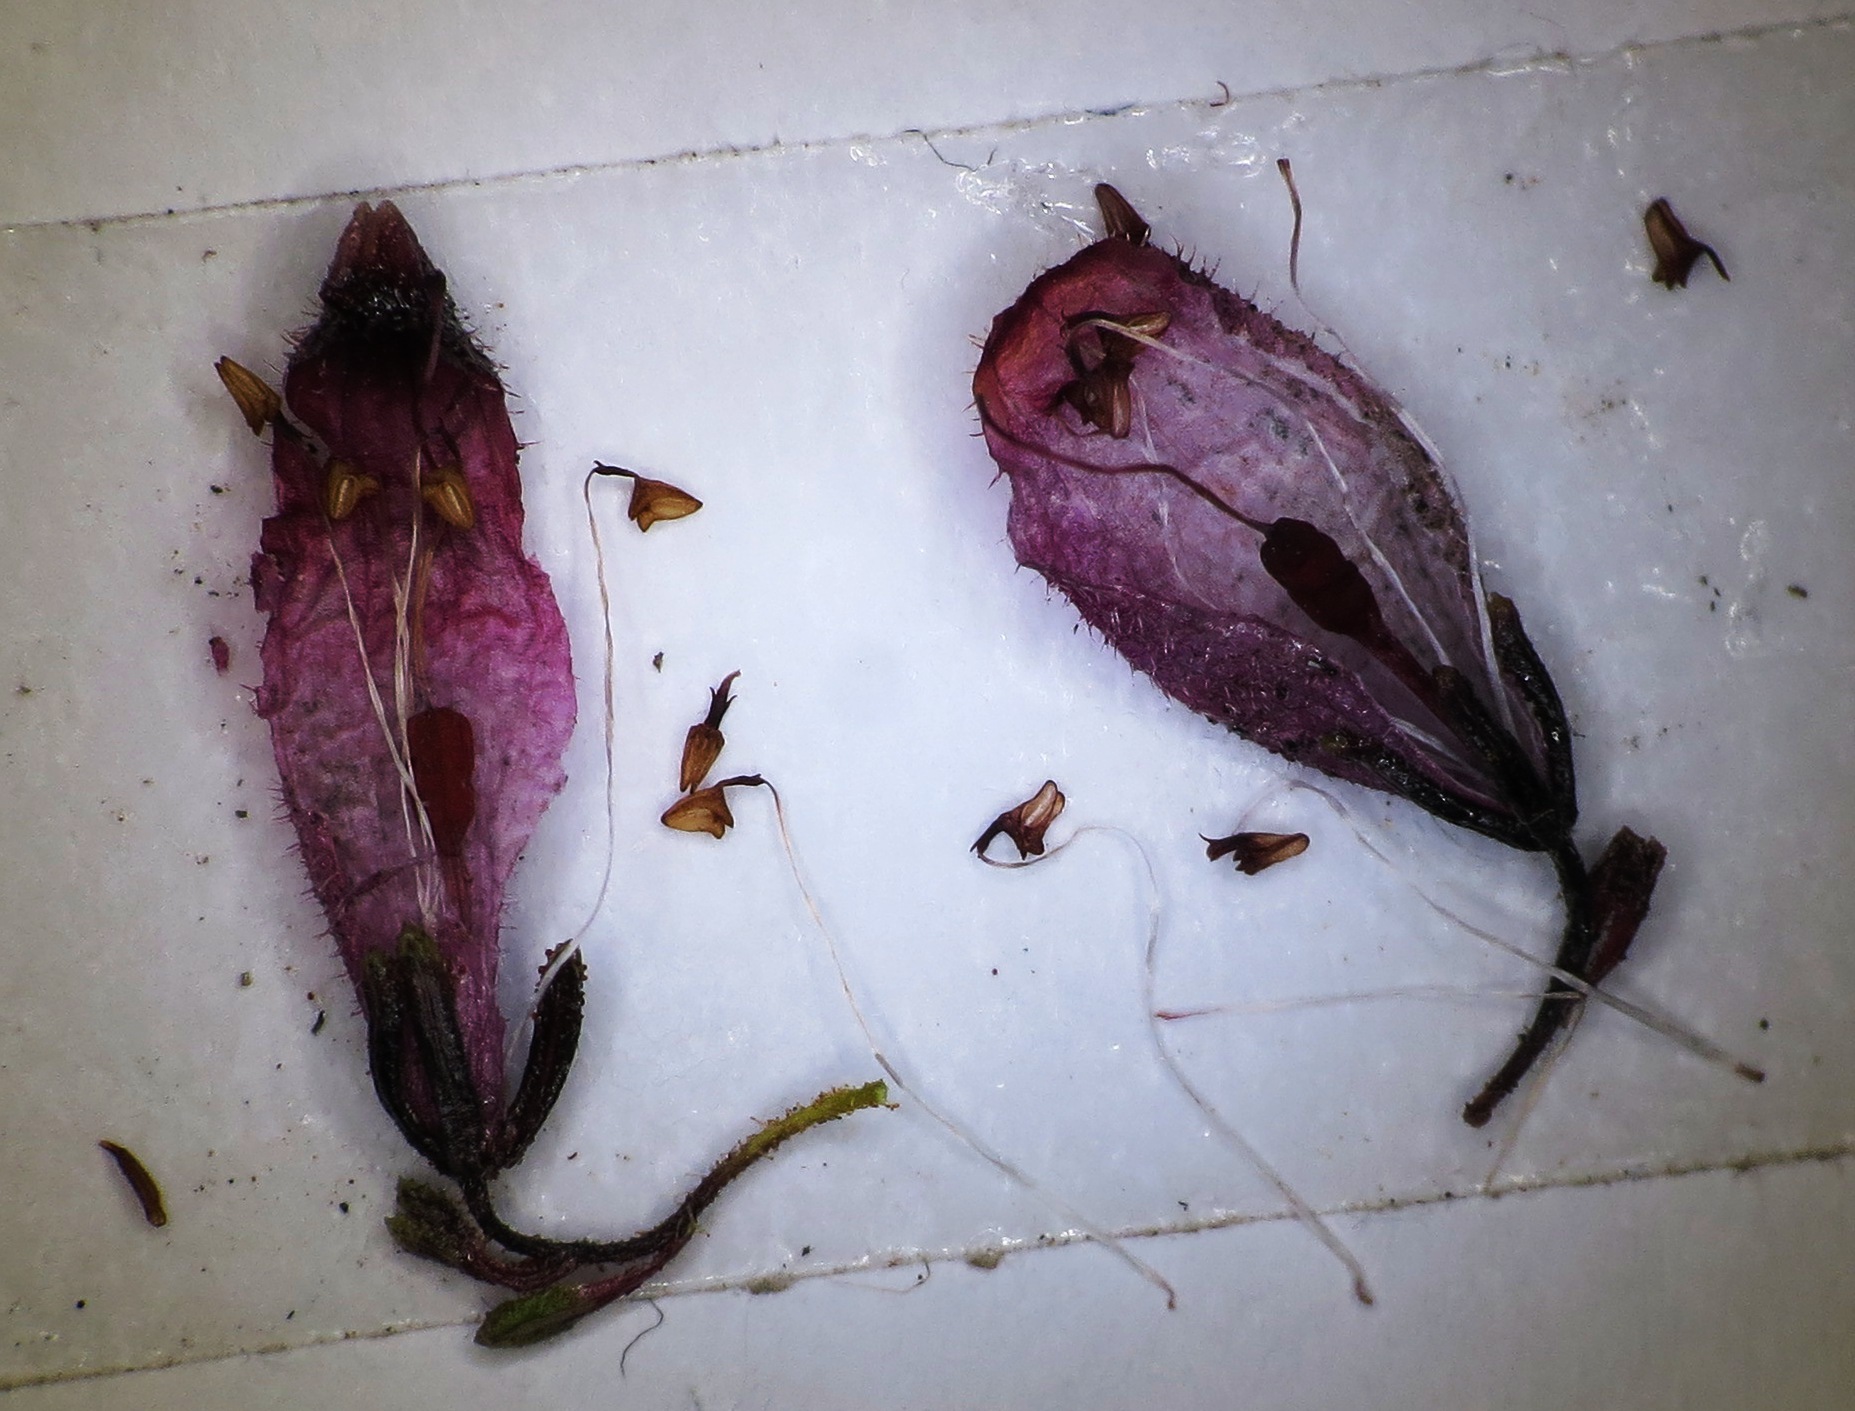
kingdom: Plantae
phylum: Tracheophyta
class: Magnoliopsida
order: Ericales
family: Ericaceae
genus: Erica
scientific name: Erica cristata
